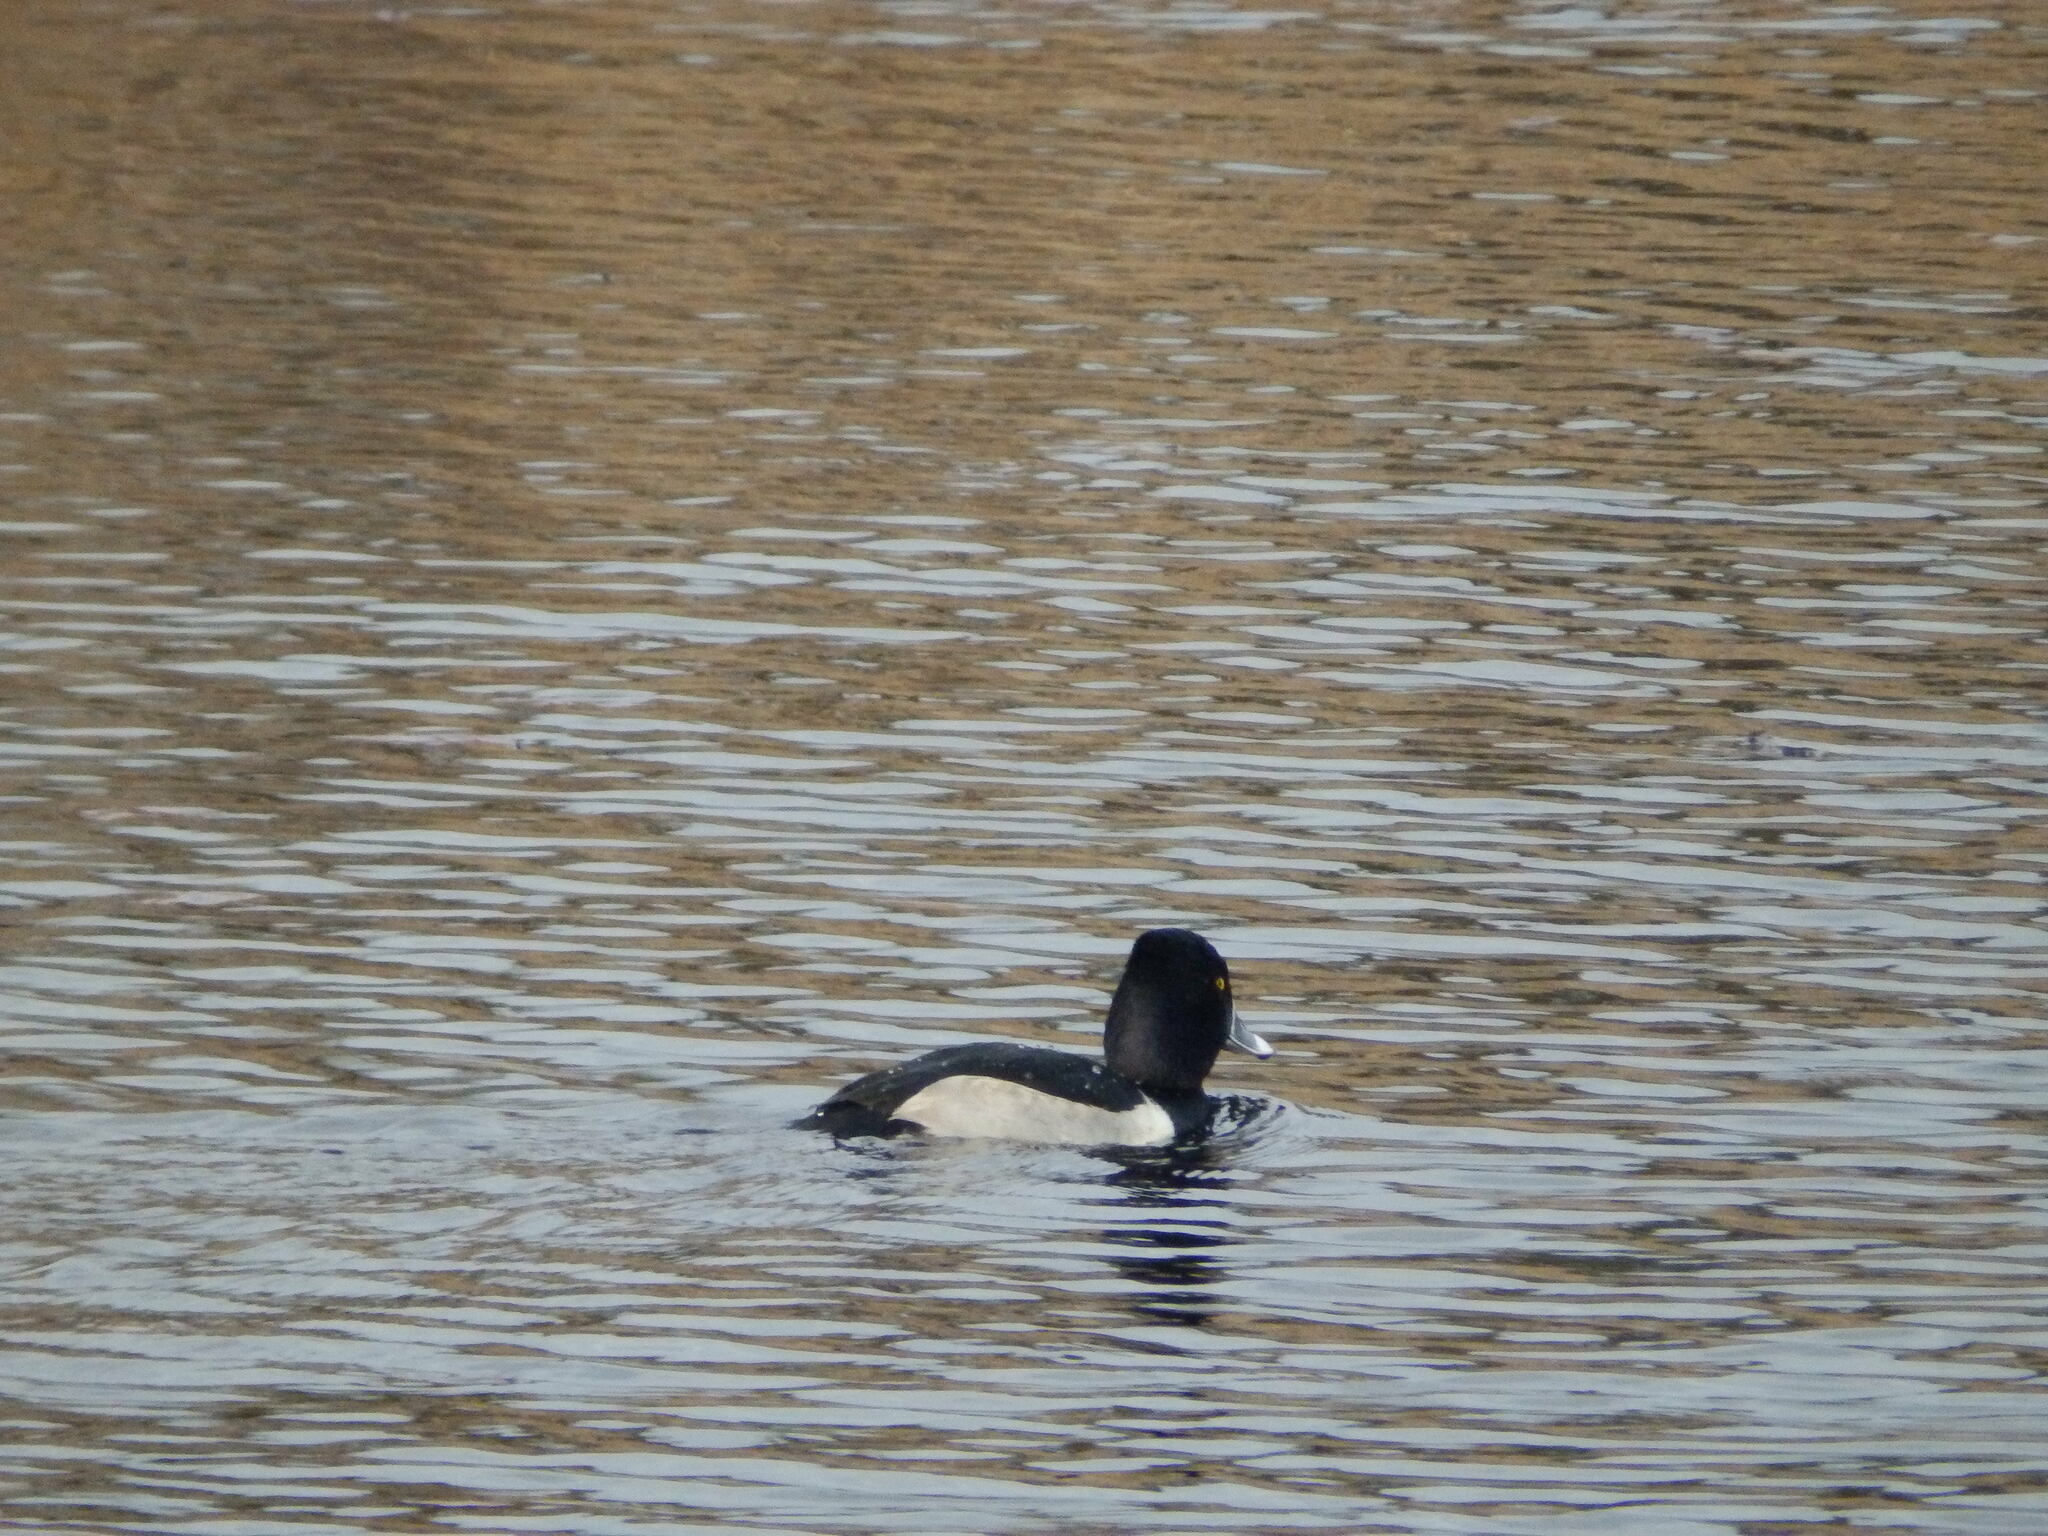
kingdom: Animalia
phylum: Chordata
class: Aves
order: Anseriformes
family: Anatidae
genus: Aythya
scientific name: Aythya collaris
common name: Ring-necked duck
